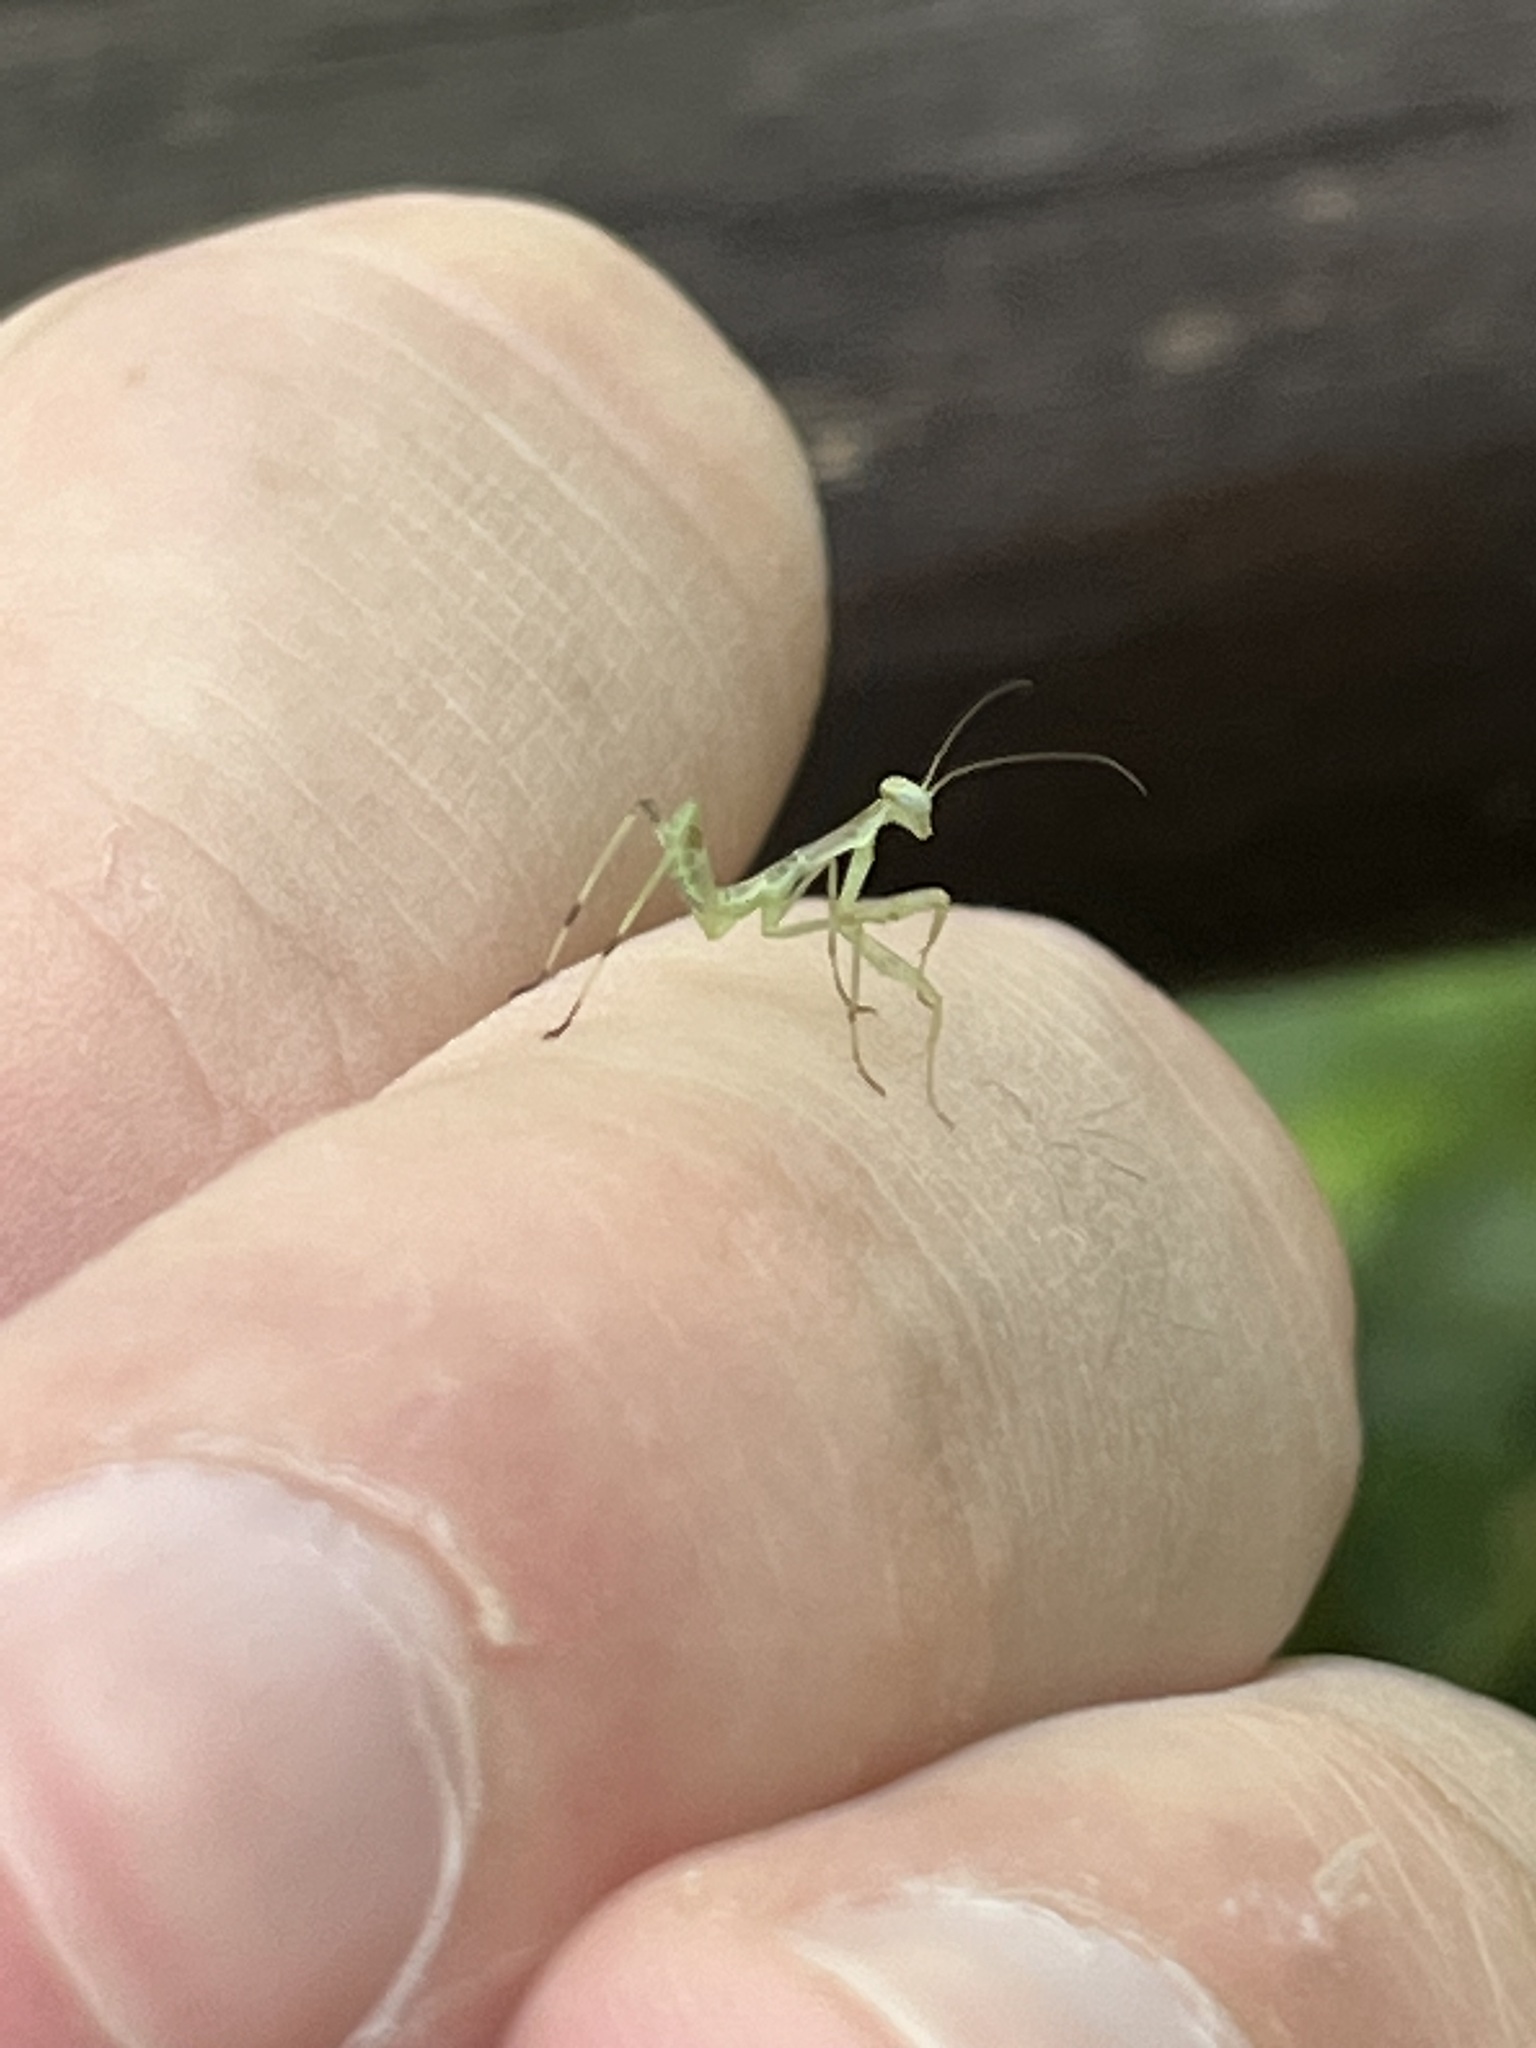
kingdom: Animalia
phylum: Arthropoda
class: Insecta
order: Mantodea
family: Mantidae
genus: Hierodula
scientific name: Hierodula transcaucasica
